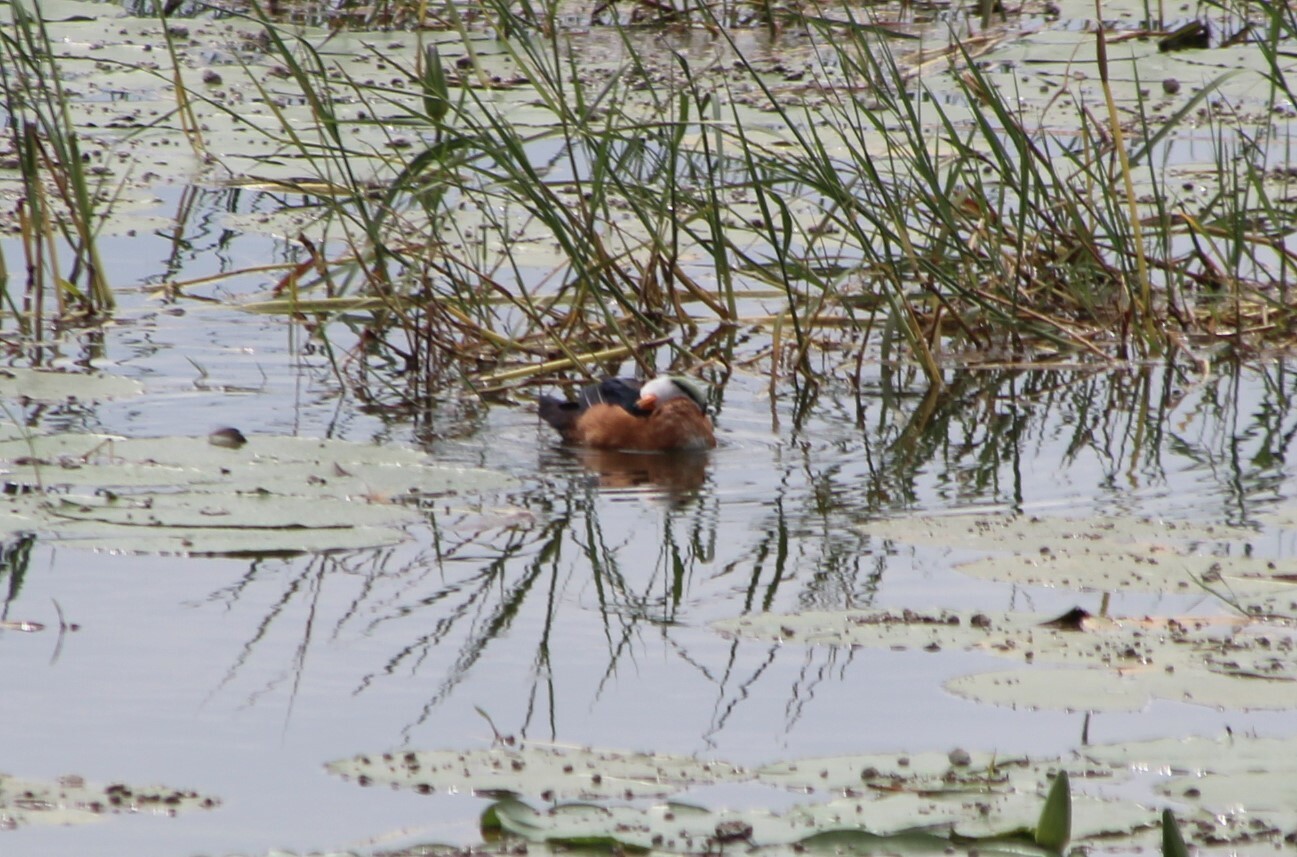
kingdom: Animalia
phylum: Chordata
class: Aves
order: Anseriformes
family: Anatidae
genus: Nettapus
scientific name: Nettapus auritus
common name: African pygmy-goose
